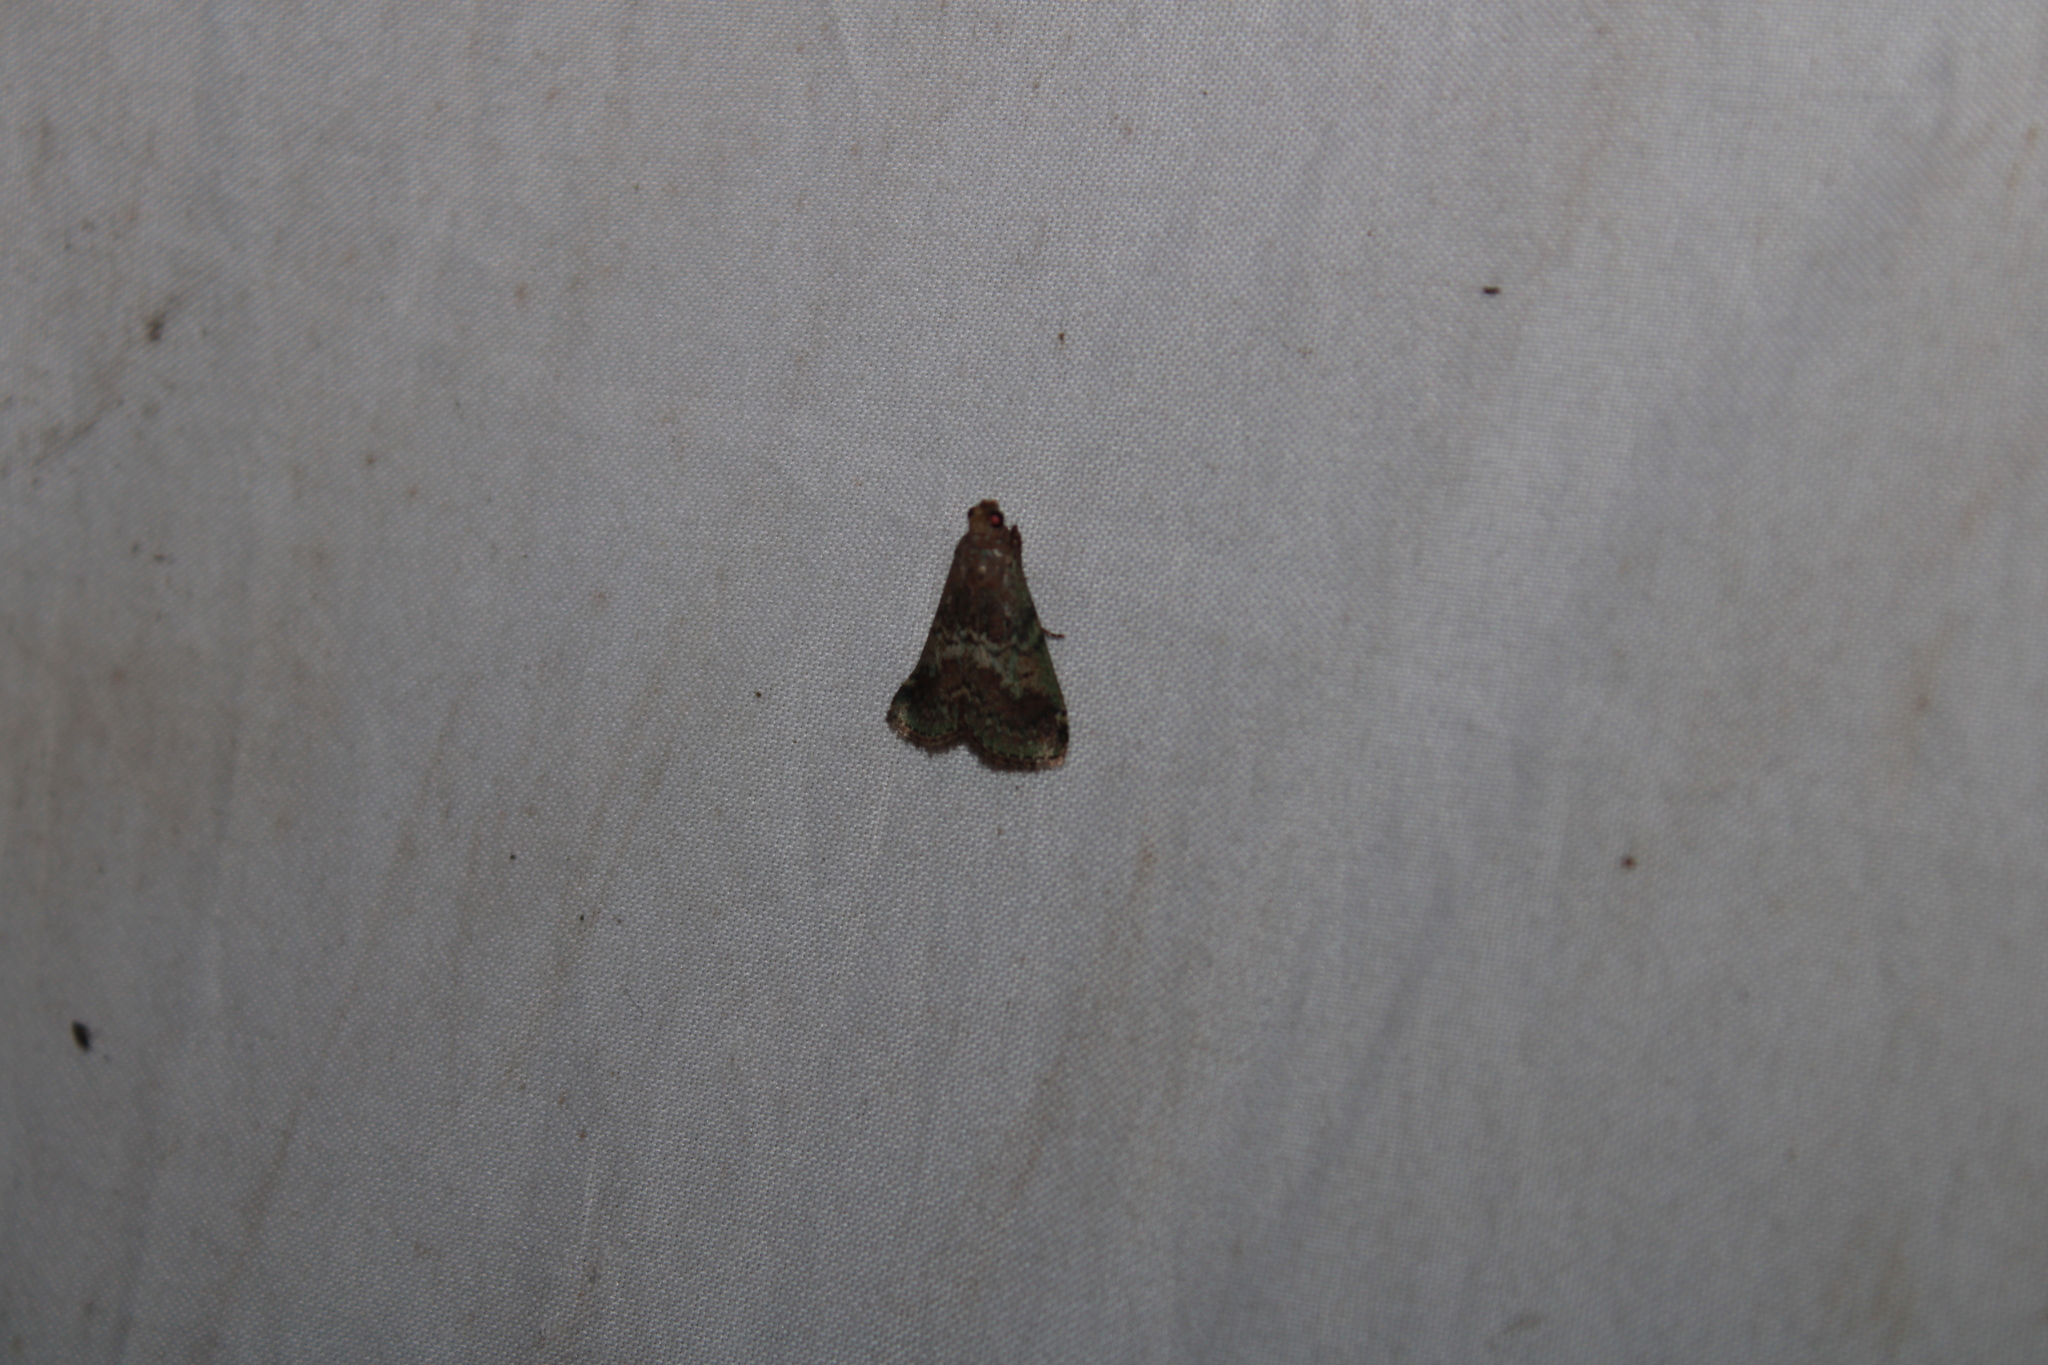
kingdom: Animalia
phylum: Arthropoda
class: Insecta
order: Lepidoptera
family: Pyralidae
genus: Deuterollyta
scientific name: Deuterollyta majuscula
